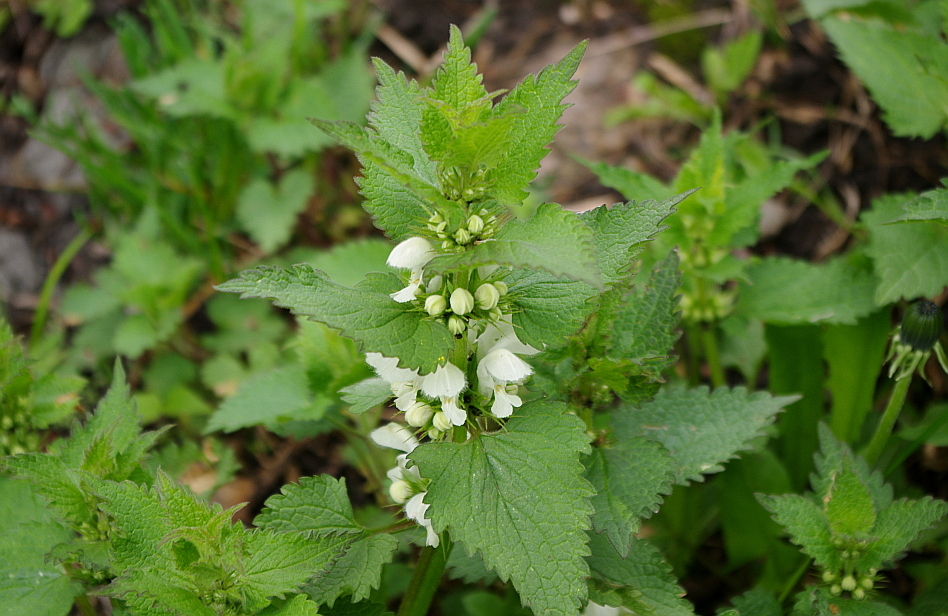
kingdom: Plantae
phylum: Tracheophyta
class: Magnoliopsida
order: Lamiales
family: Lamiaceae
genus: Lamium
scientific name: Lamium album
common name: White dead-nettle
